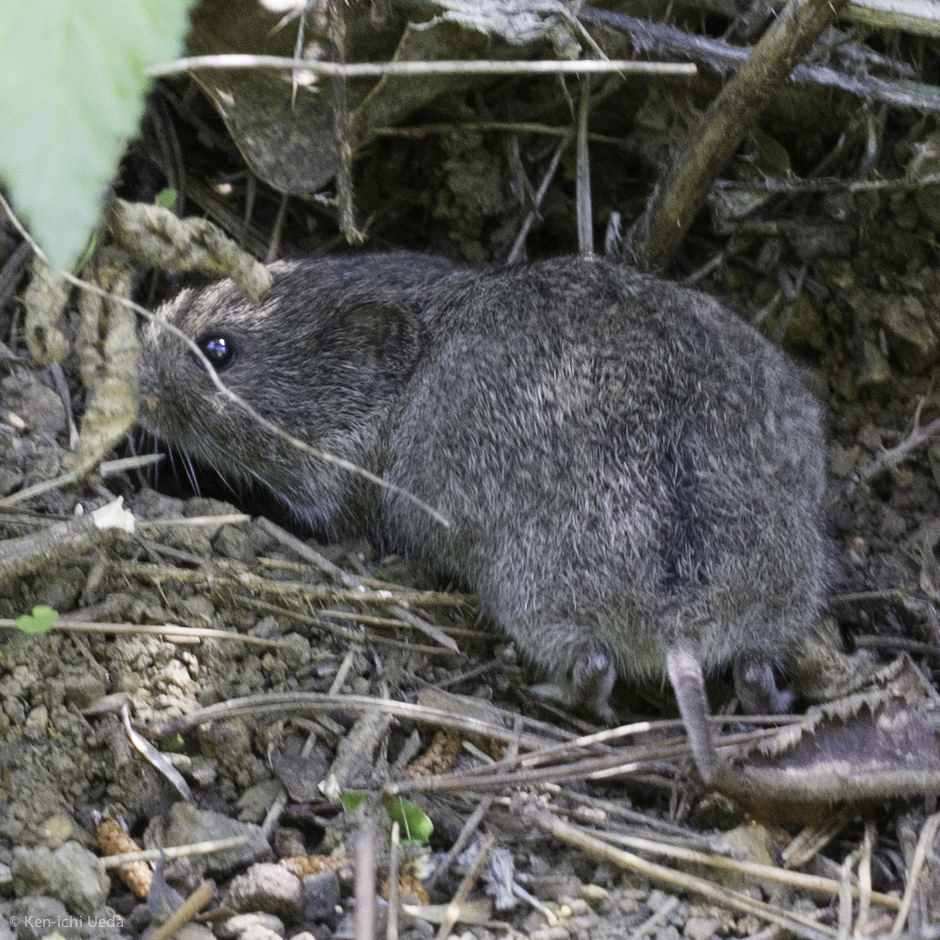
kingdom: Animalia
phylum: Chordata
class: Mammalia
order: Rodentia
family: Cricetidae
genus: Microtus
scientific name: Microtus californicus
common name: California vole
